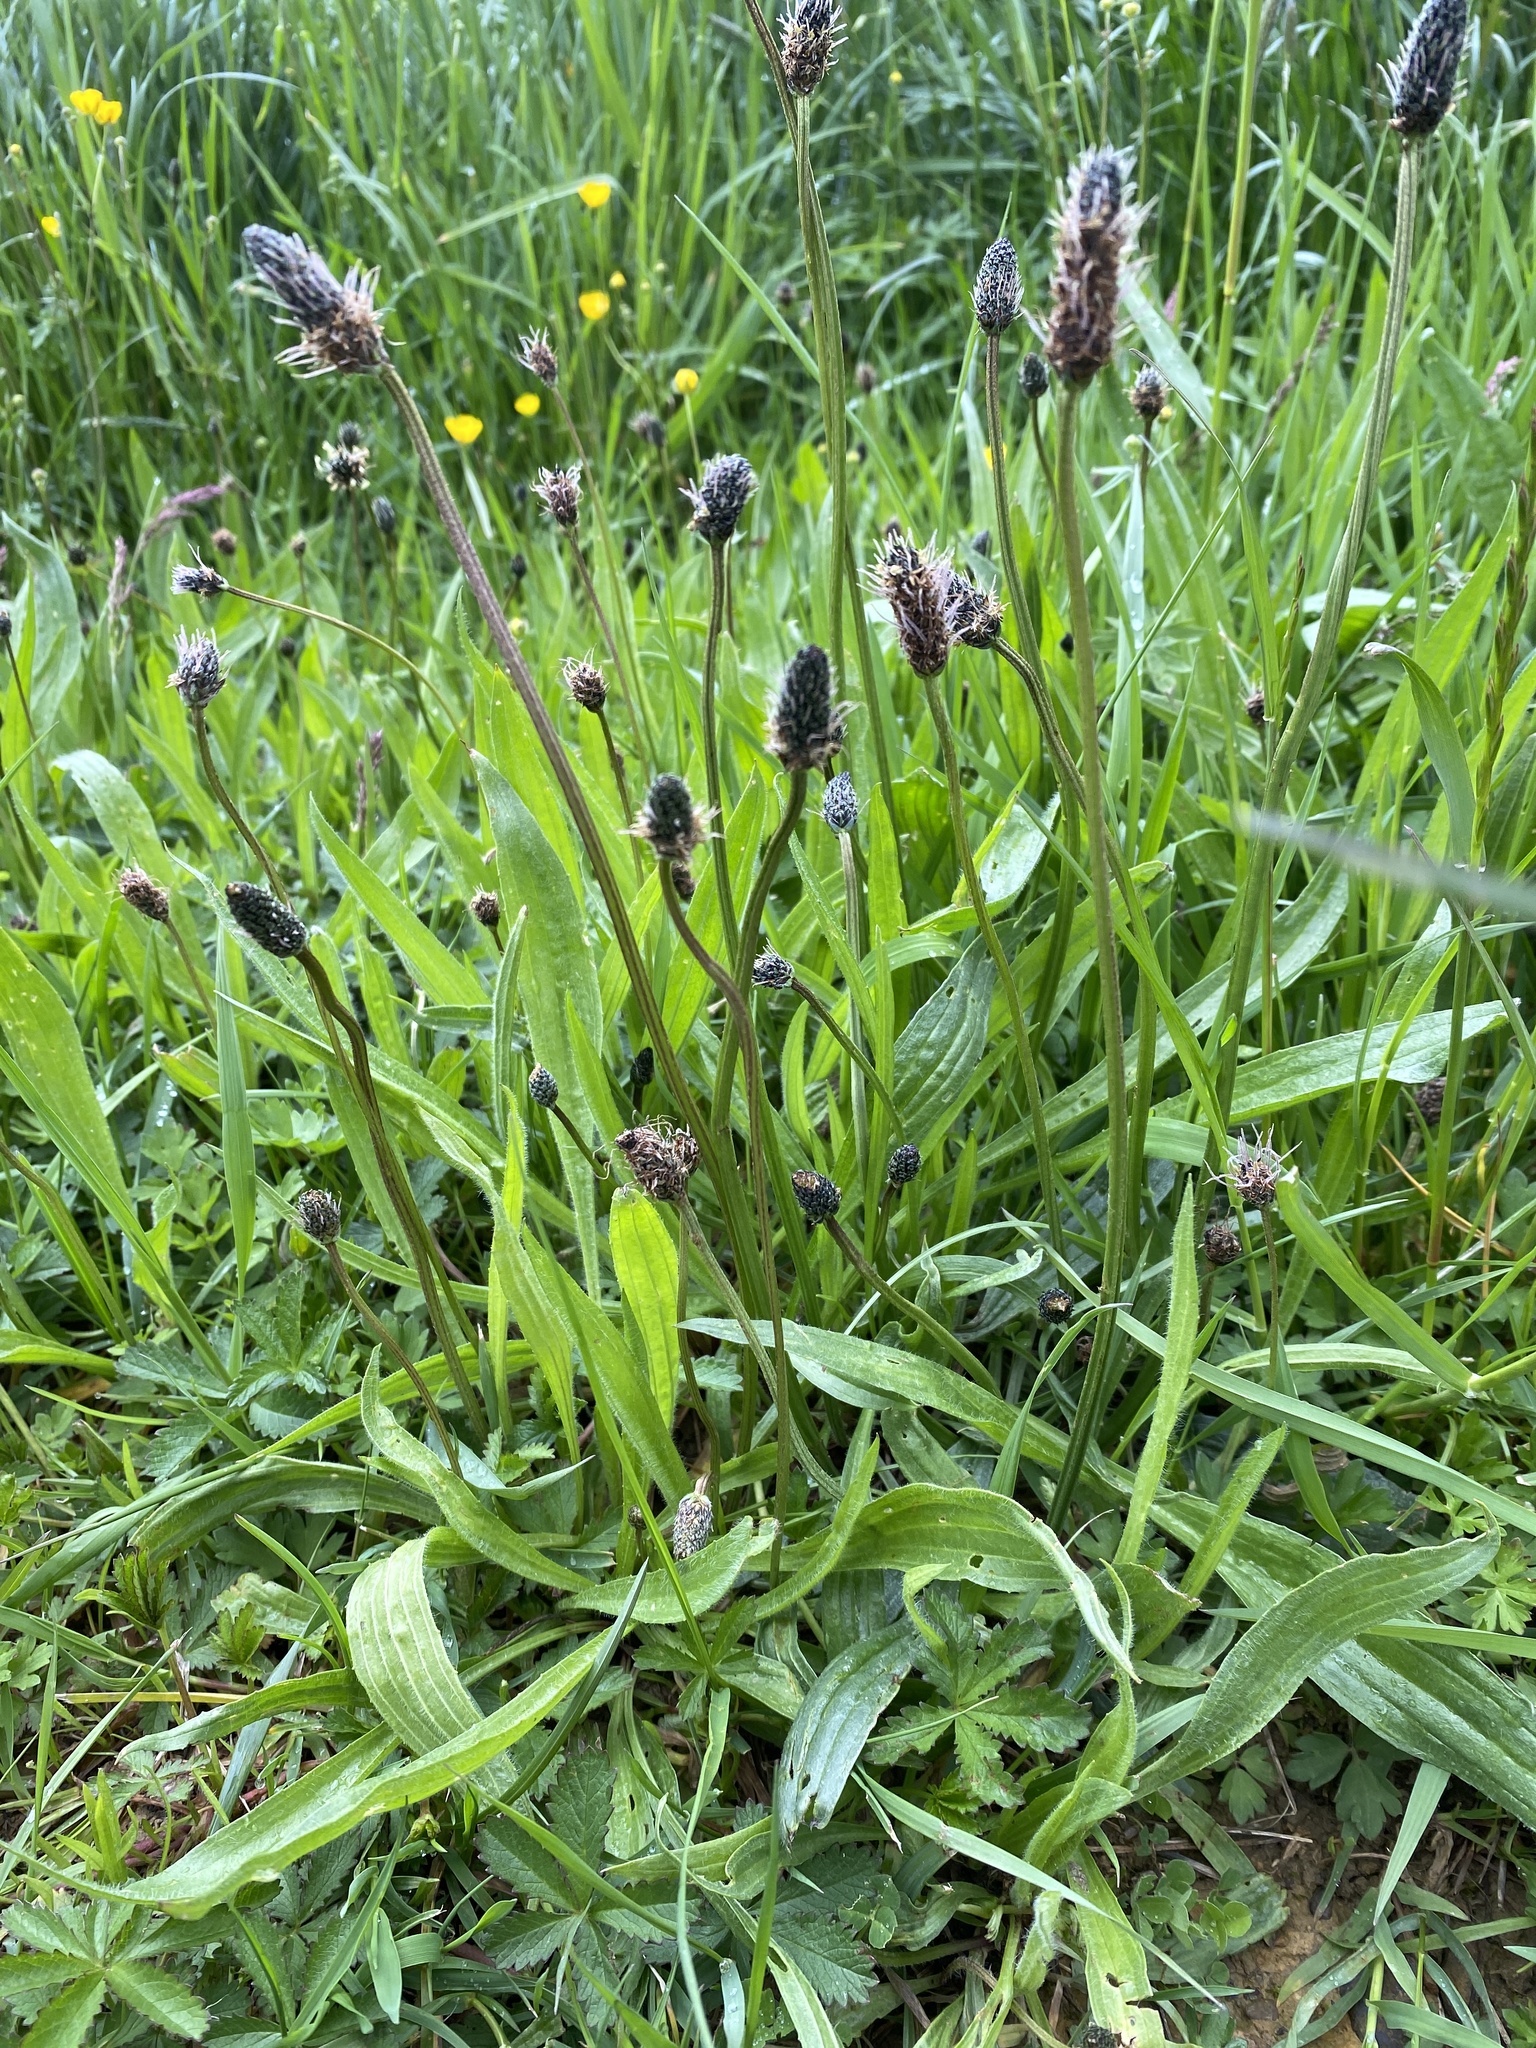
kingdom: Plantae
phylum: Tracheophyta
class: Magnoliopsida
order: Lamiales
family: Plantaginaceae
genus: Plantago
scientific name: Plantago lanceolata
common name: Ribwort plantain
